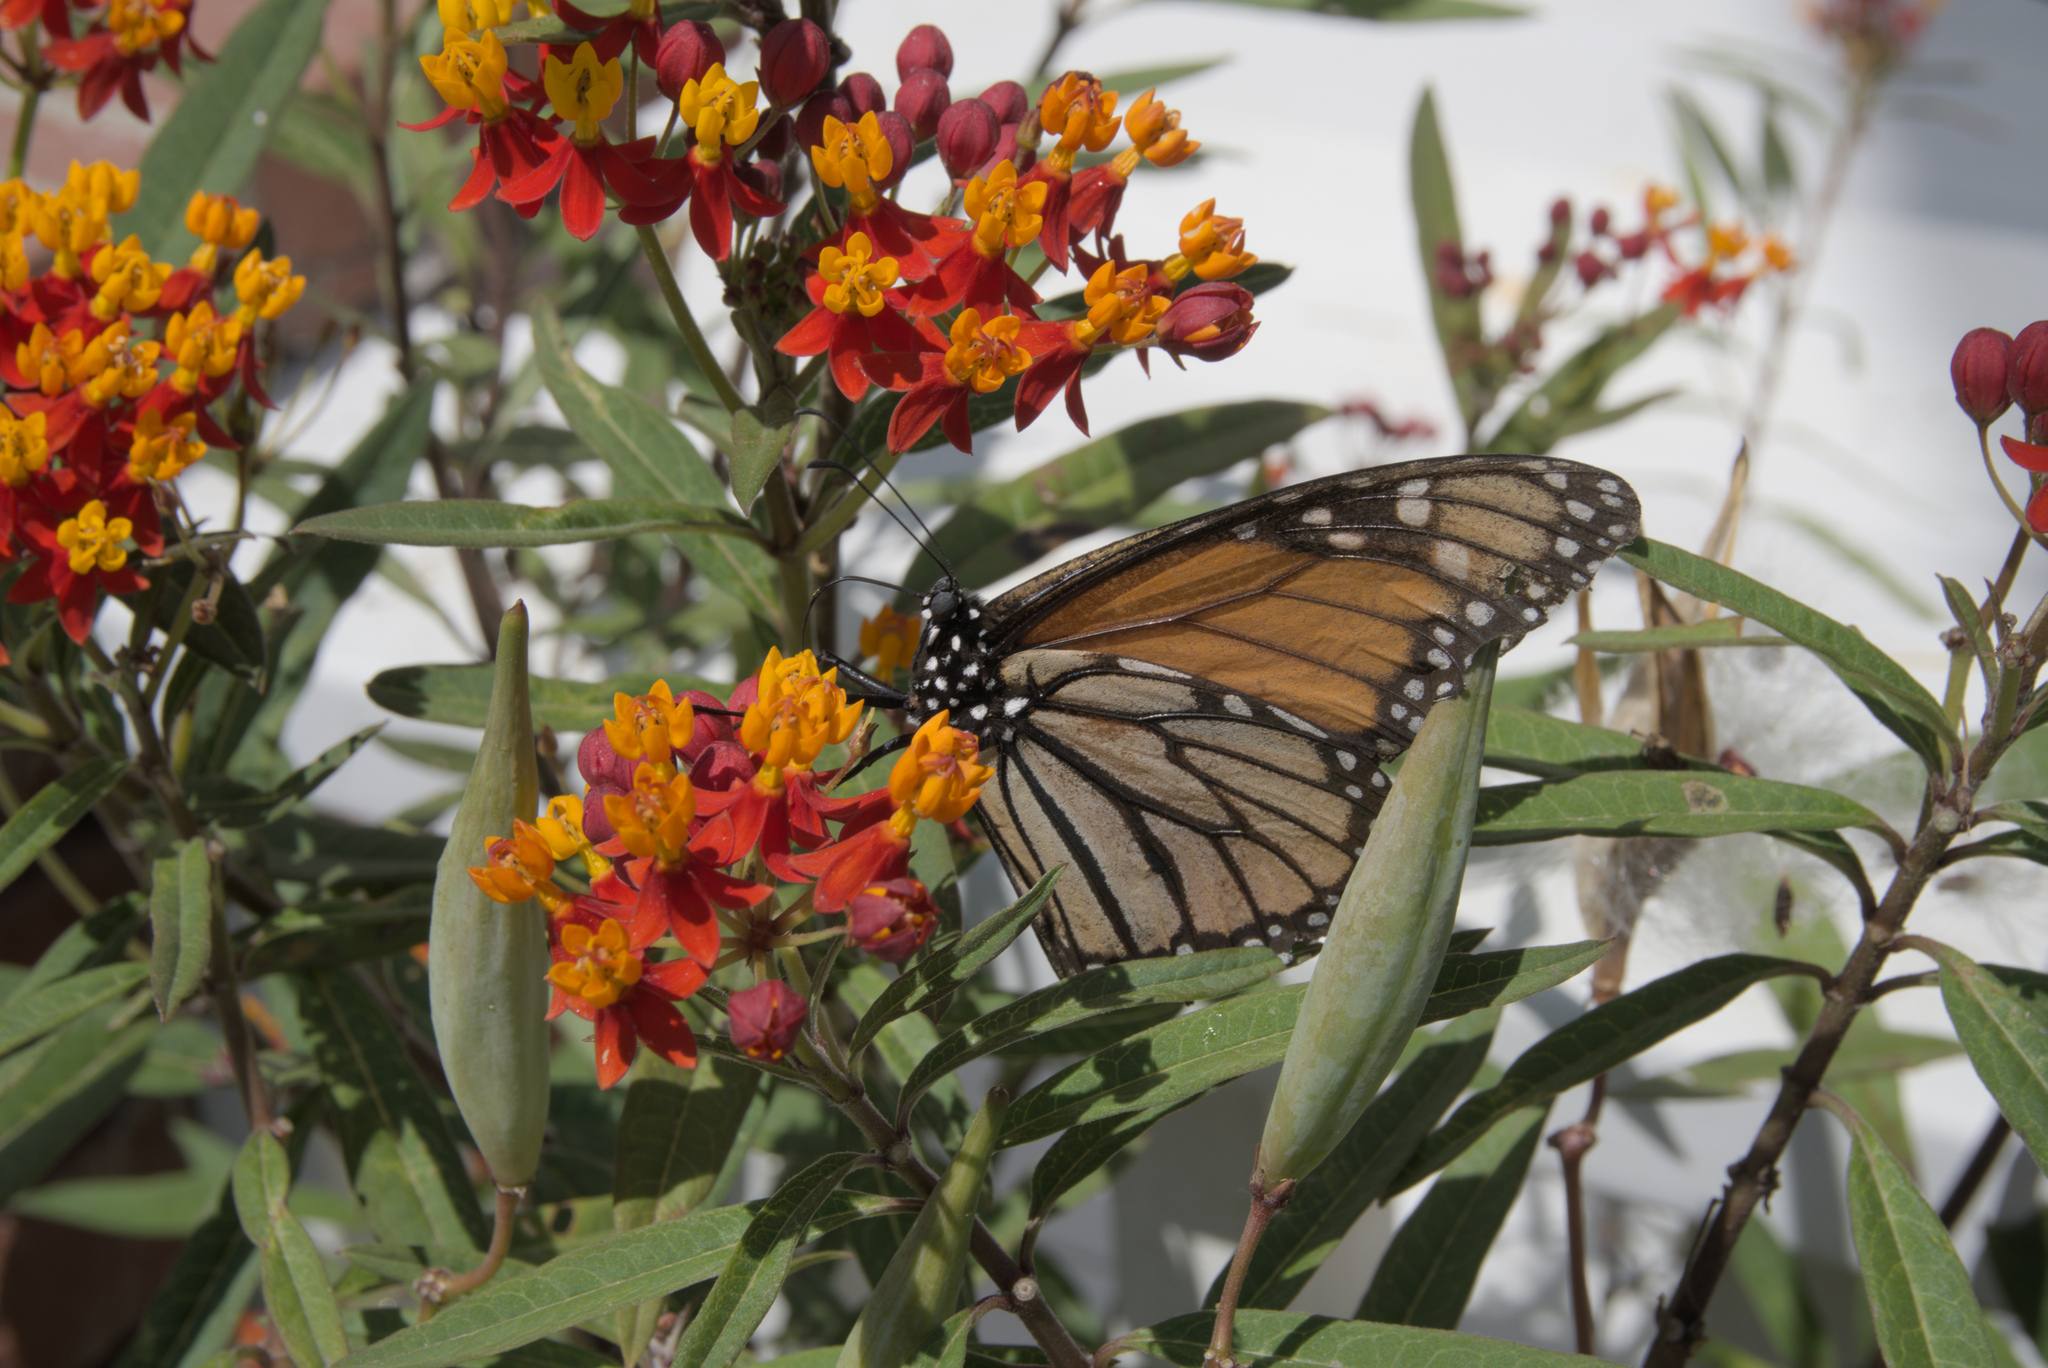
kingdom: Animalia
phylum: Arthropoda
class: Insecta
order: Lepidoptera
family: Nymphalidae
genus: Danaus
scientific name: Danaus plexippus
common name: Monarch
